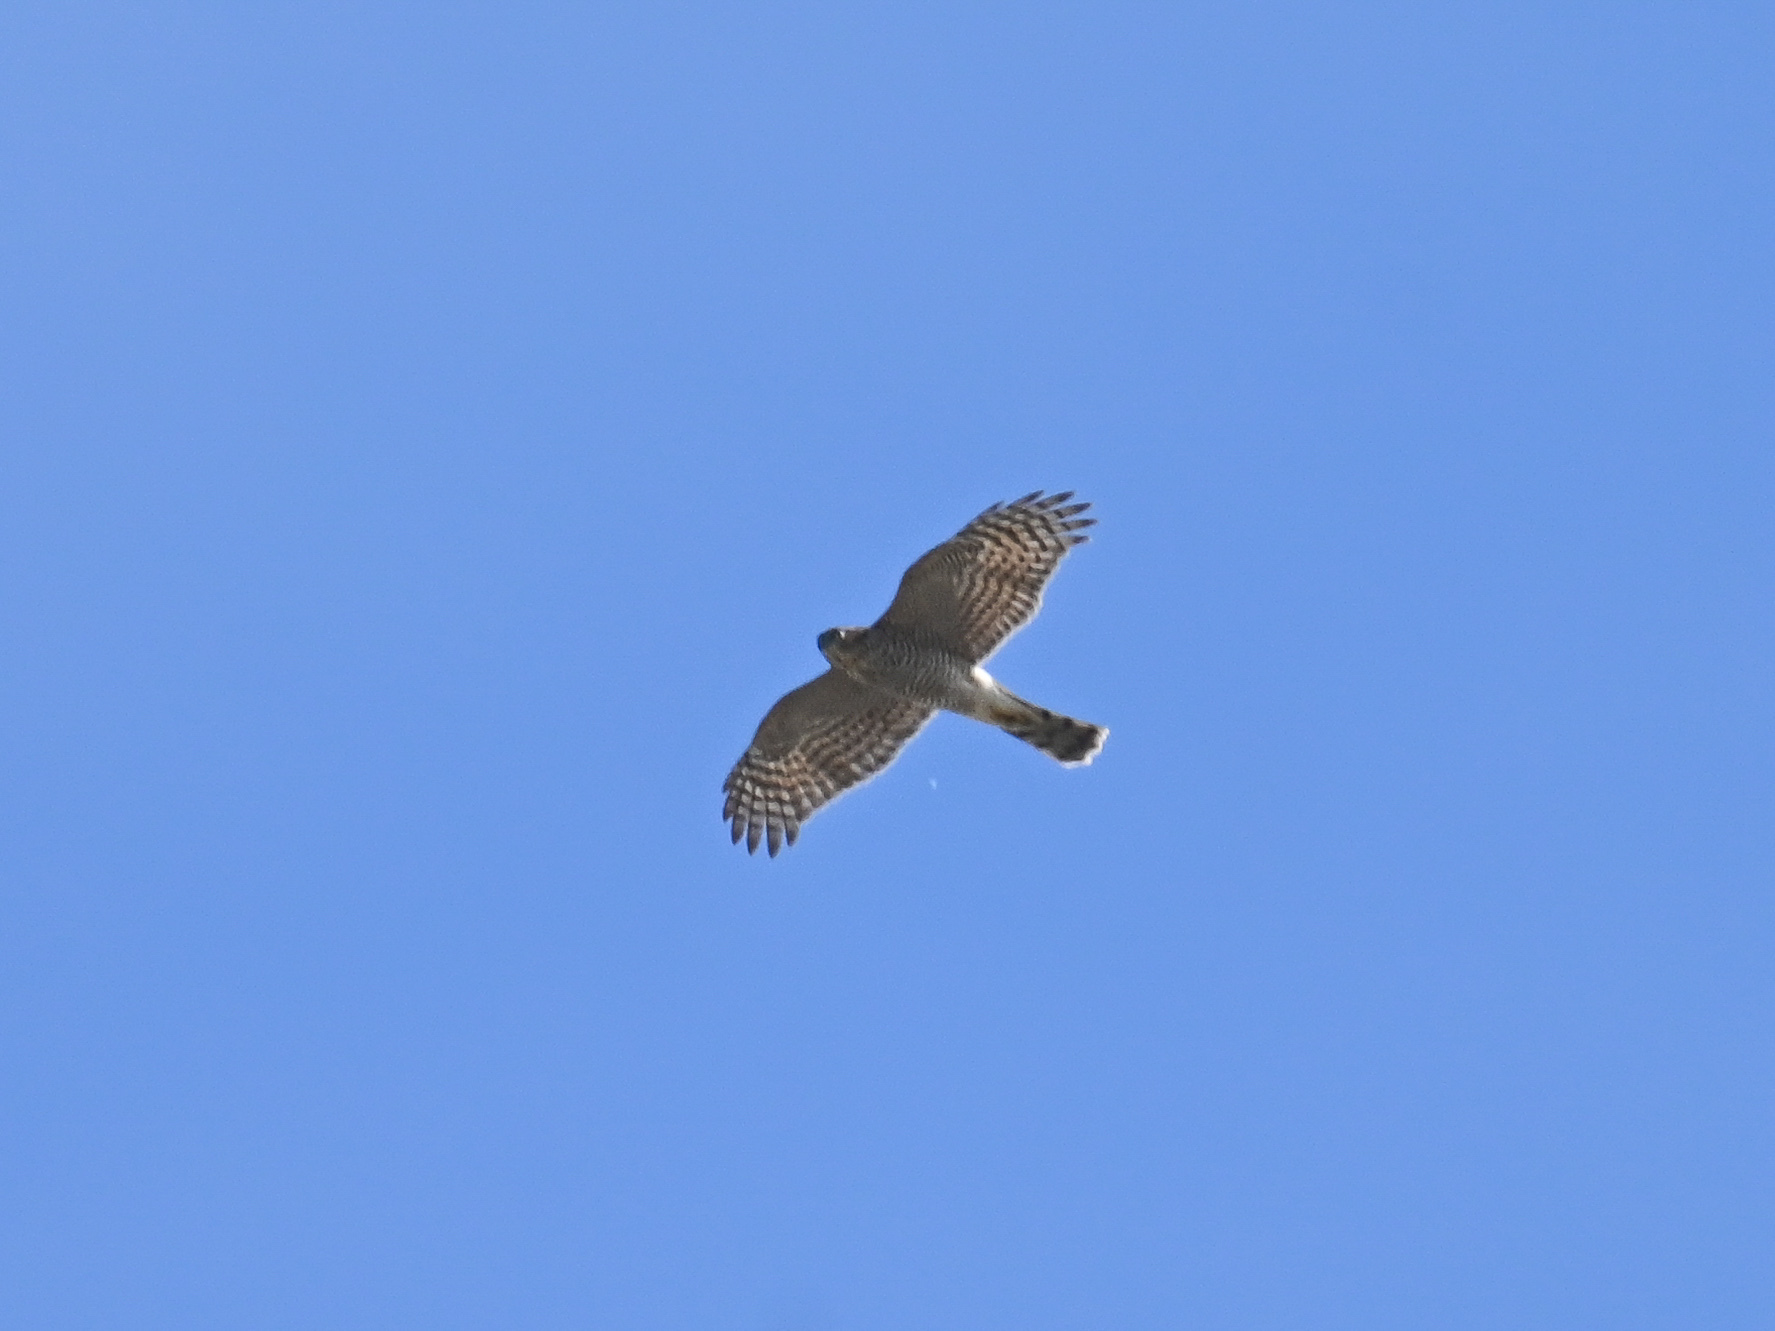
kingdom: Animalia
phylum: Chordata
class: Aves
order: Accipitriformes
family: Accipitridae
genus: Accipiter
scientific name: Accipiter nisus
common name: Eurasian sparrowhawk
